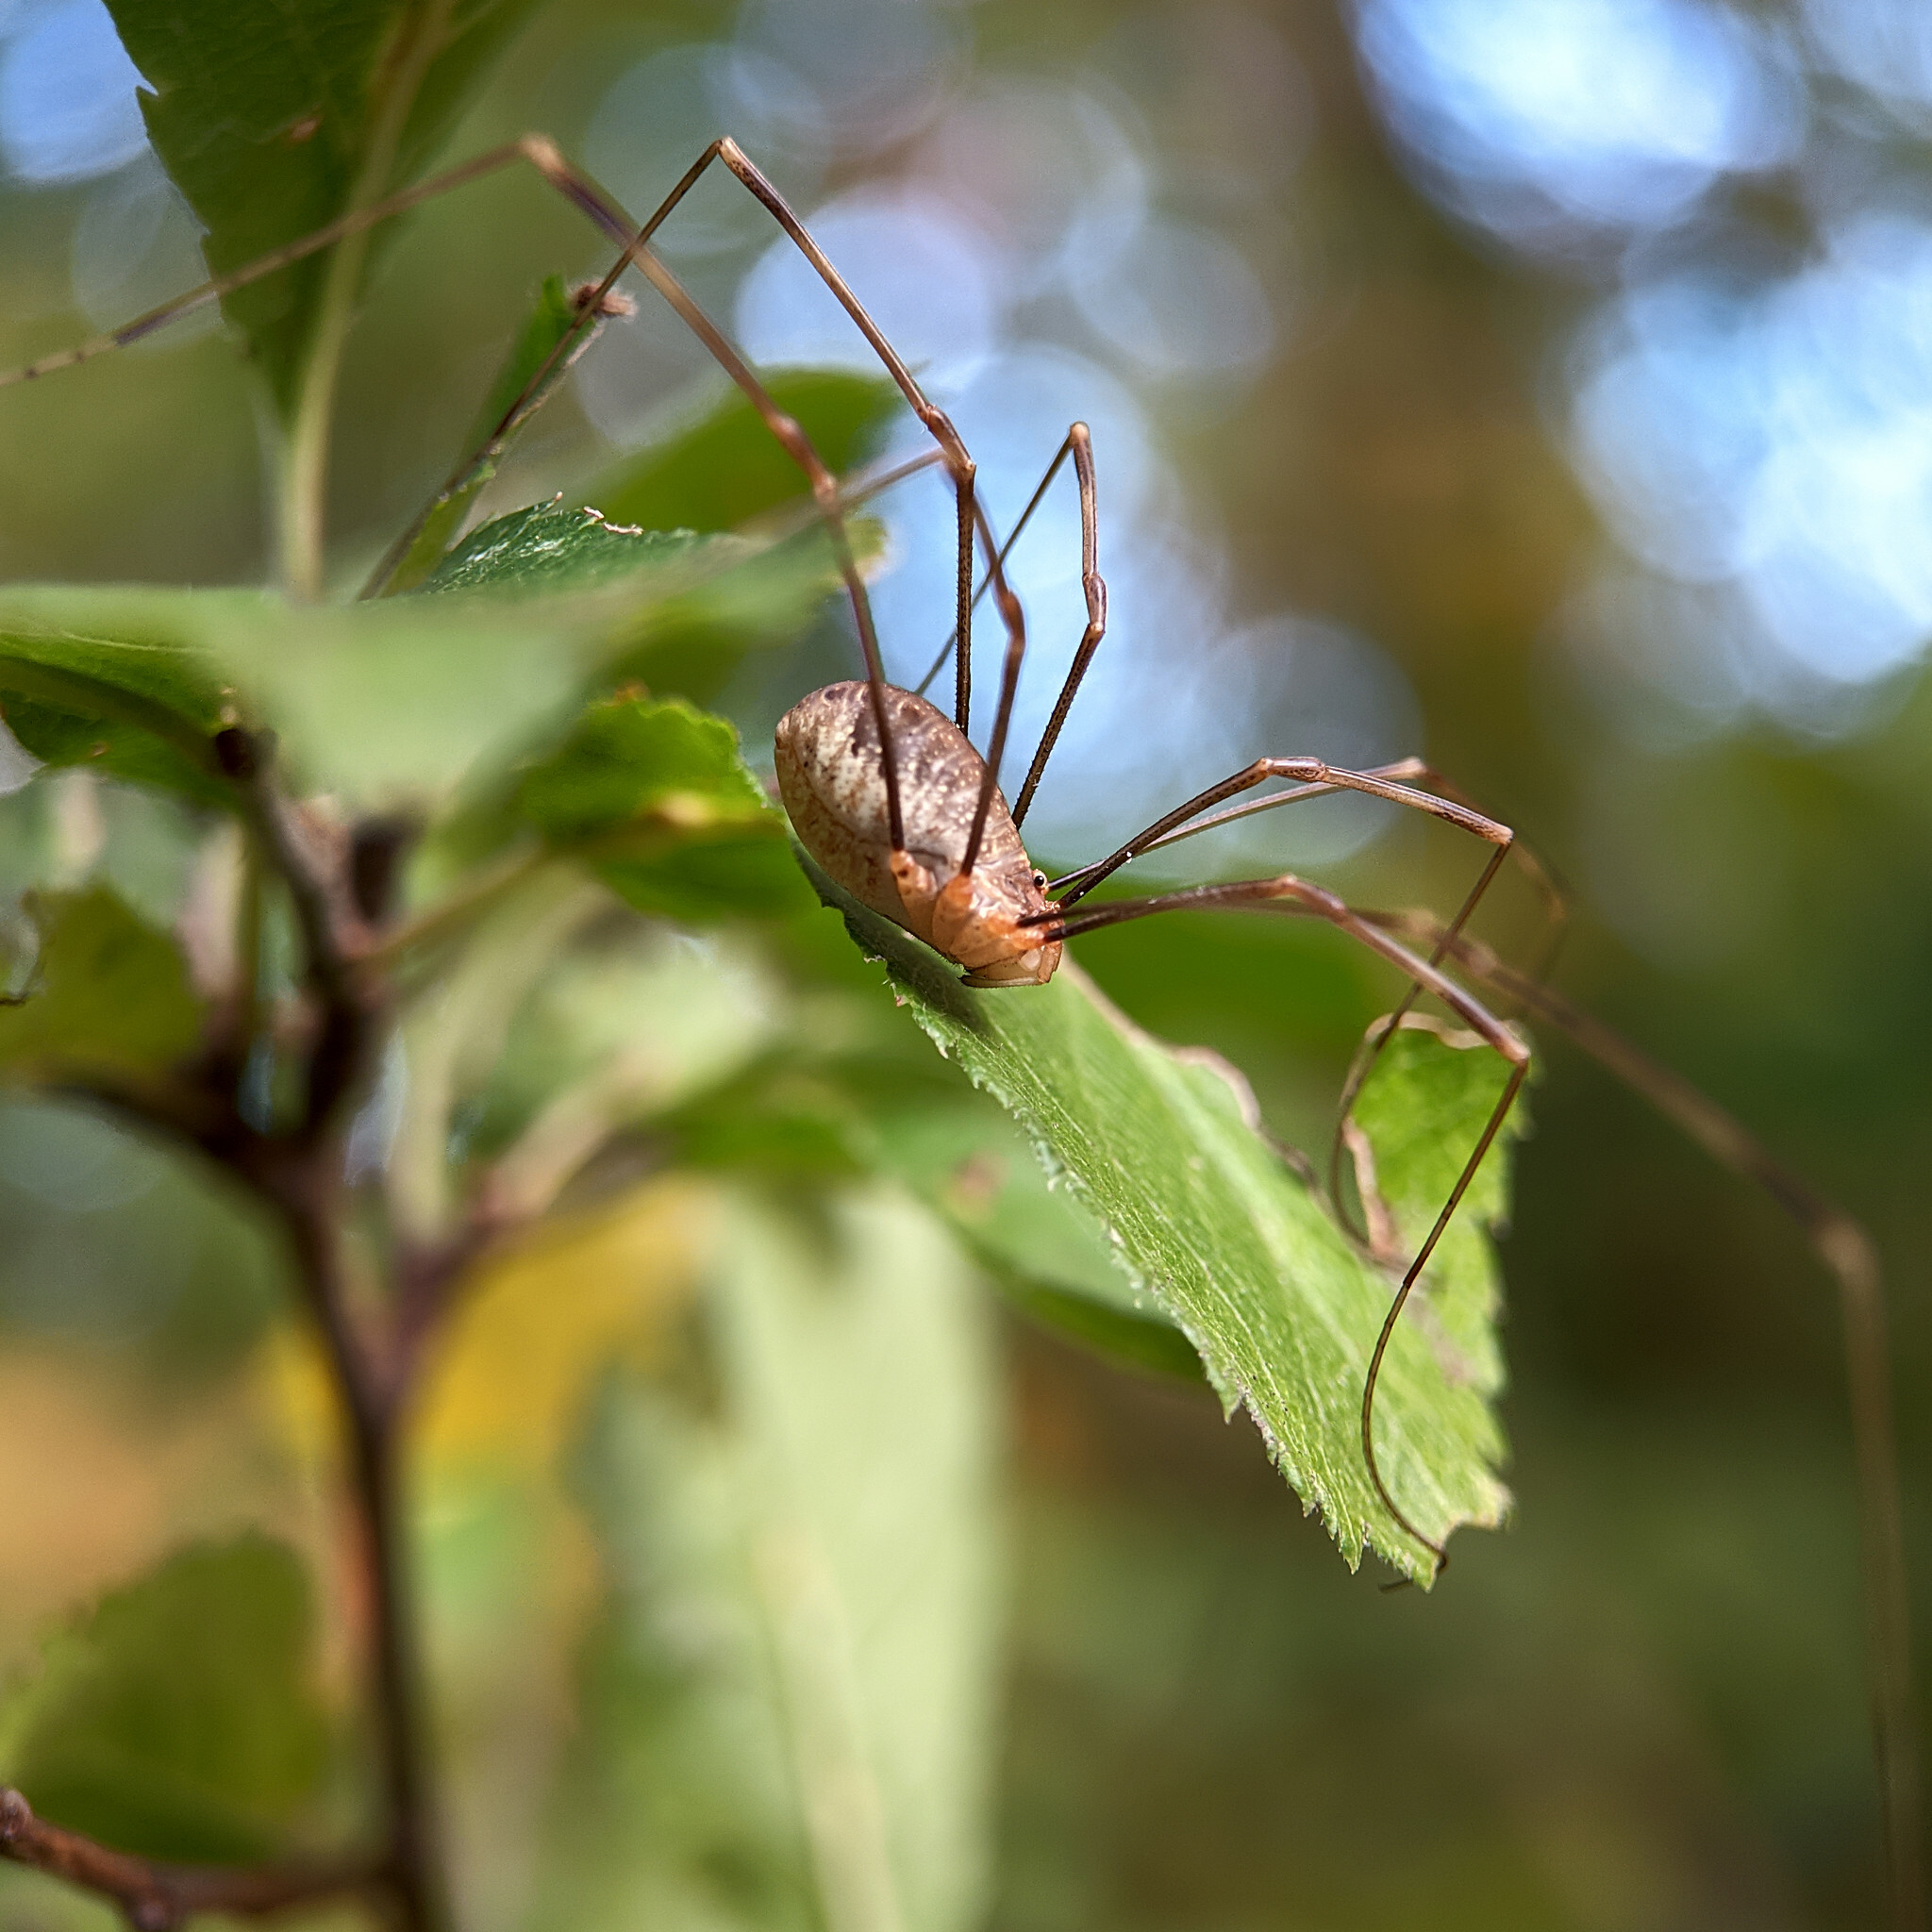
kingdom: Animalia
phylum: Arthropoda
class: Arachnida
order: Opiliones
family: Phalangiidae
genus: Opilio
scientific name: Opilio canestrinii
